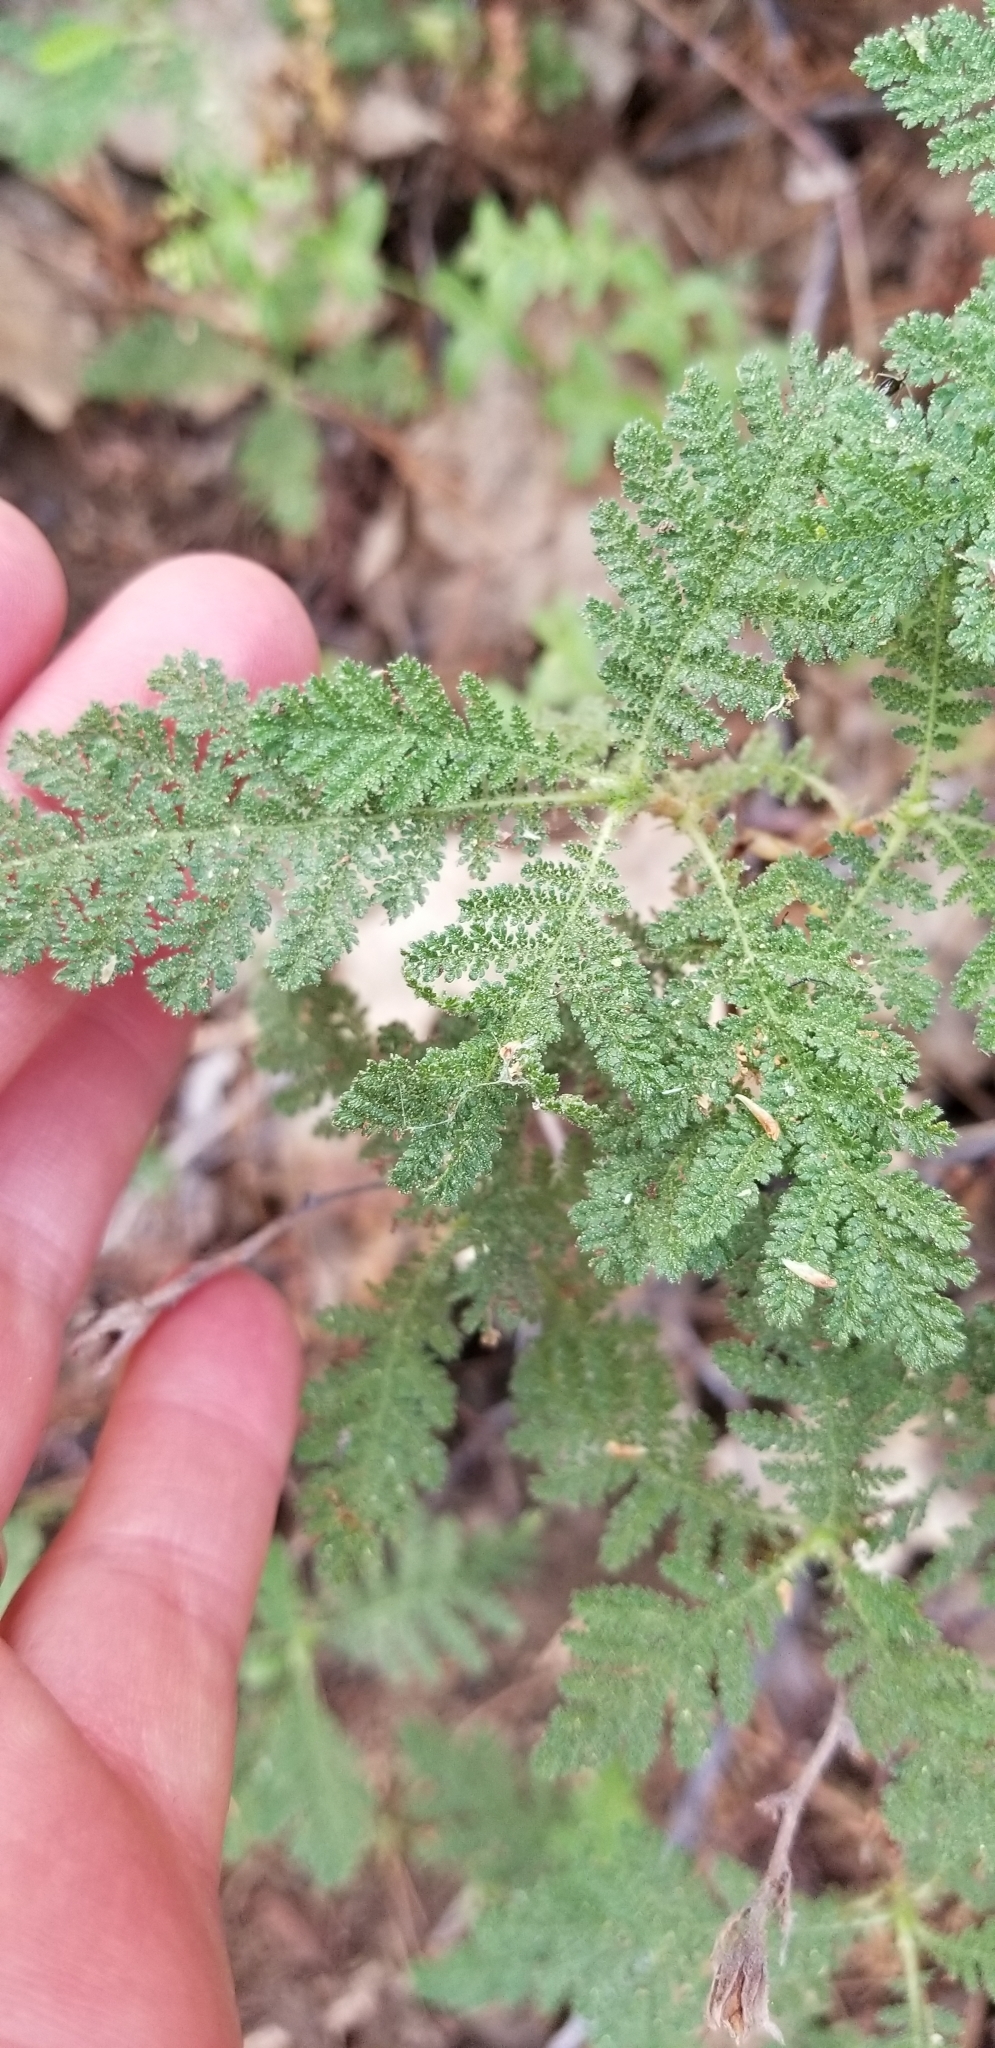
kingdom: Plantae
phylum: Tracheophyta
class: Magnoliopsida
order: Rosales
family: Rosaceae
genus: Chamaebatia
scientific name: Chamaebatia foliolosa
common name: Mountain misery
